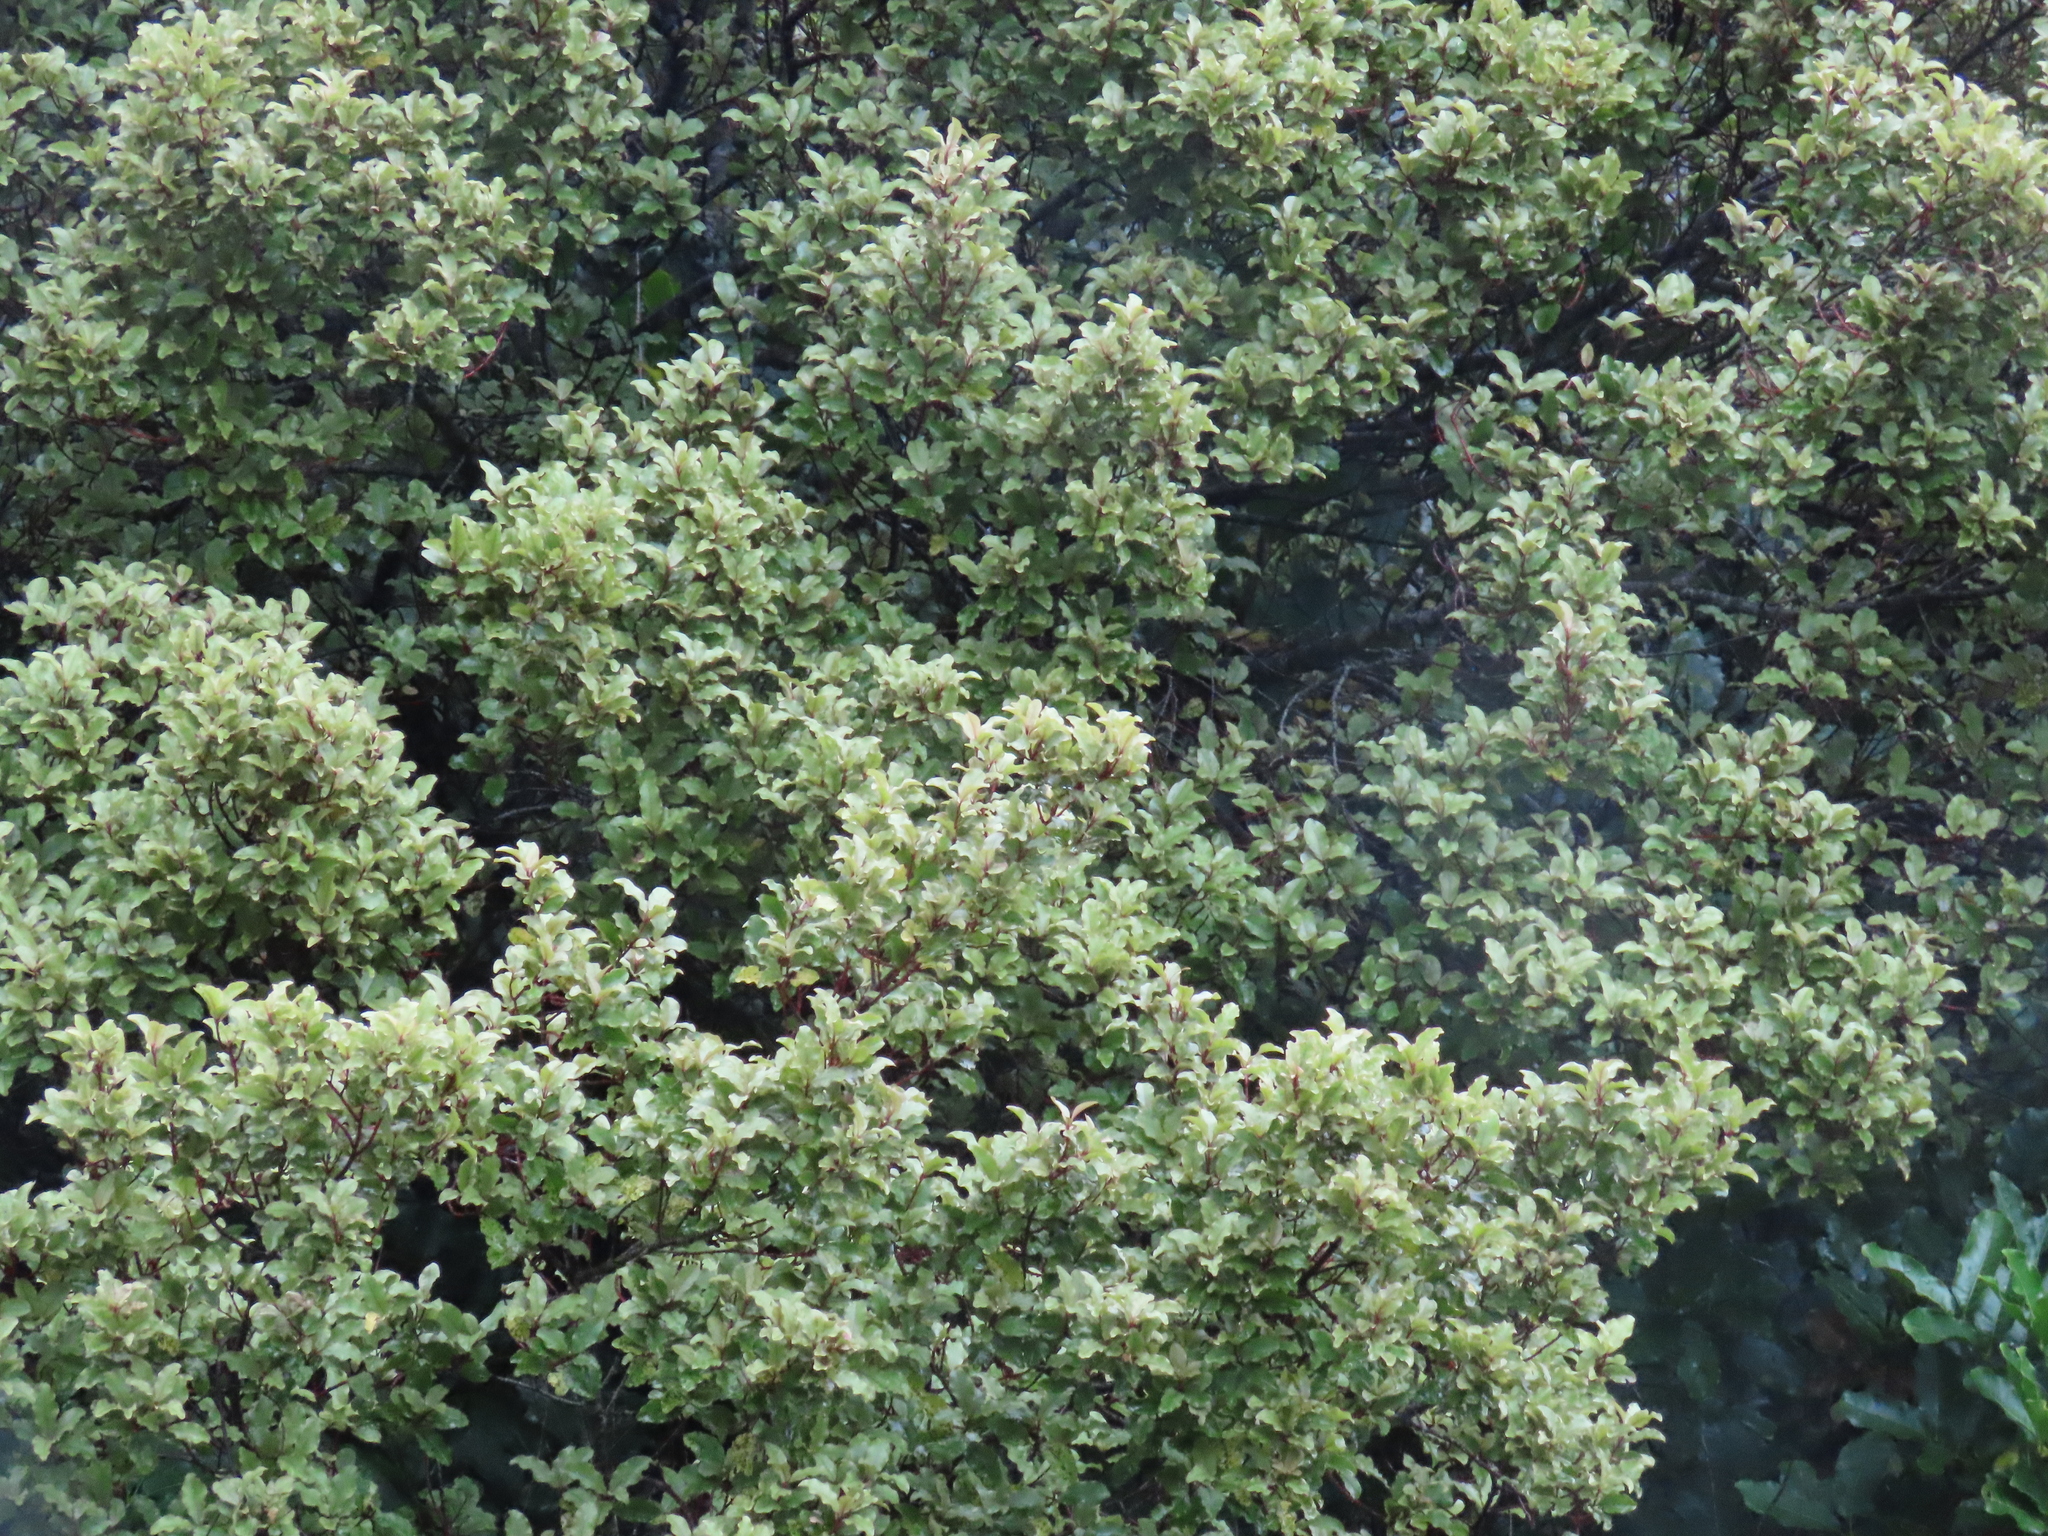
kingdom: Plantae
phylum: Tracheophyta
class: Magnoliopsida
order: Ericales
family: Primulaceae
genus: Myrsine
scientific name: Myrsine australis
